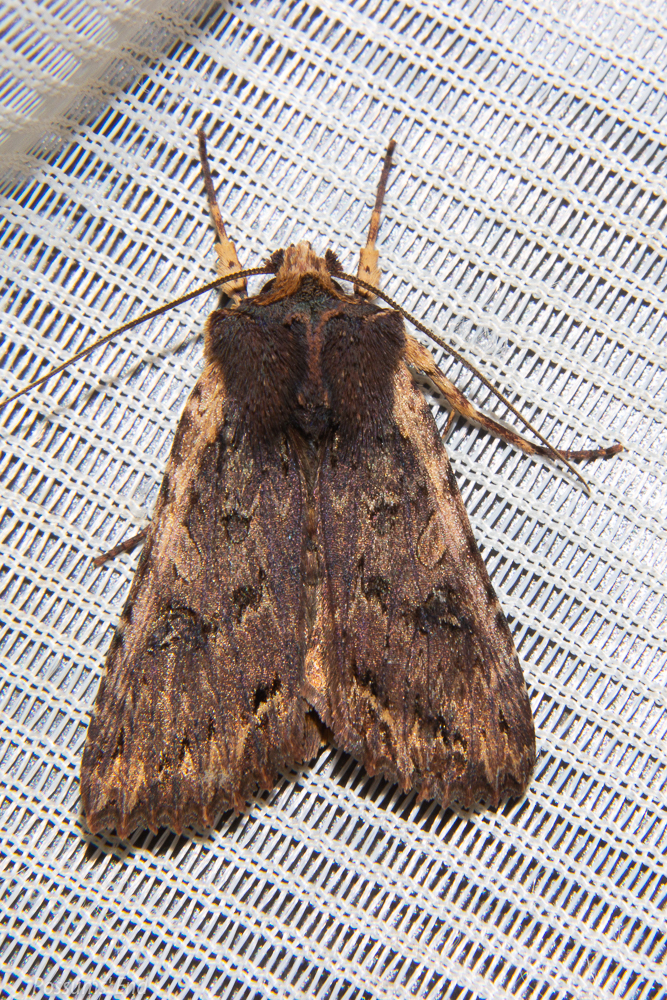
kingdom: Animalia
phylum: Arthropoda
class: Insecta
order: Lepidoptera
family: Noctuidae
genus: Meterana
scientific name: Meterana alcyone
